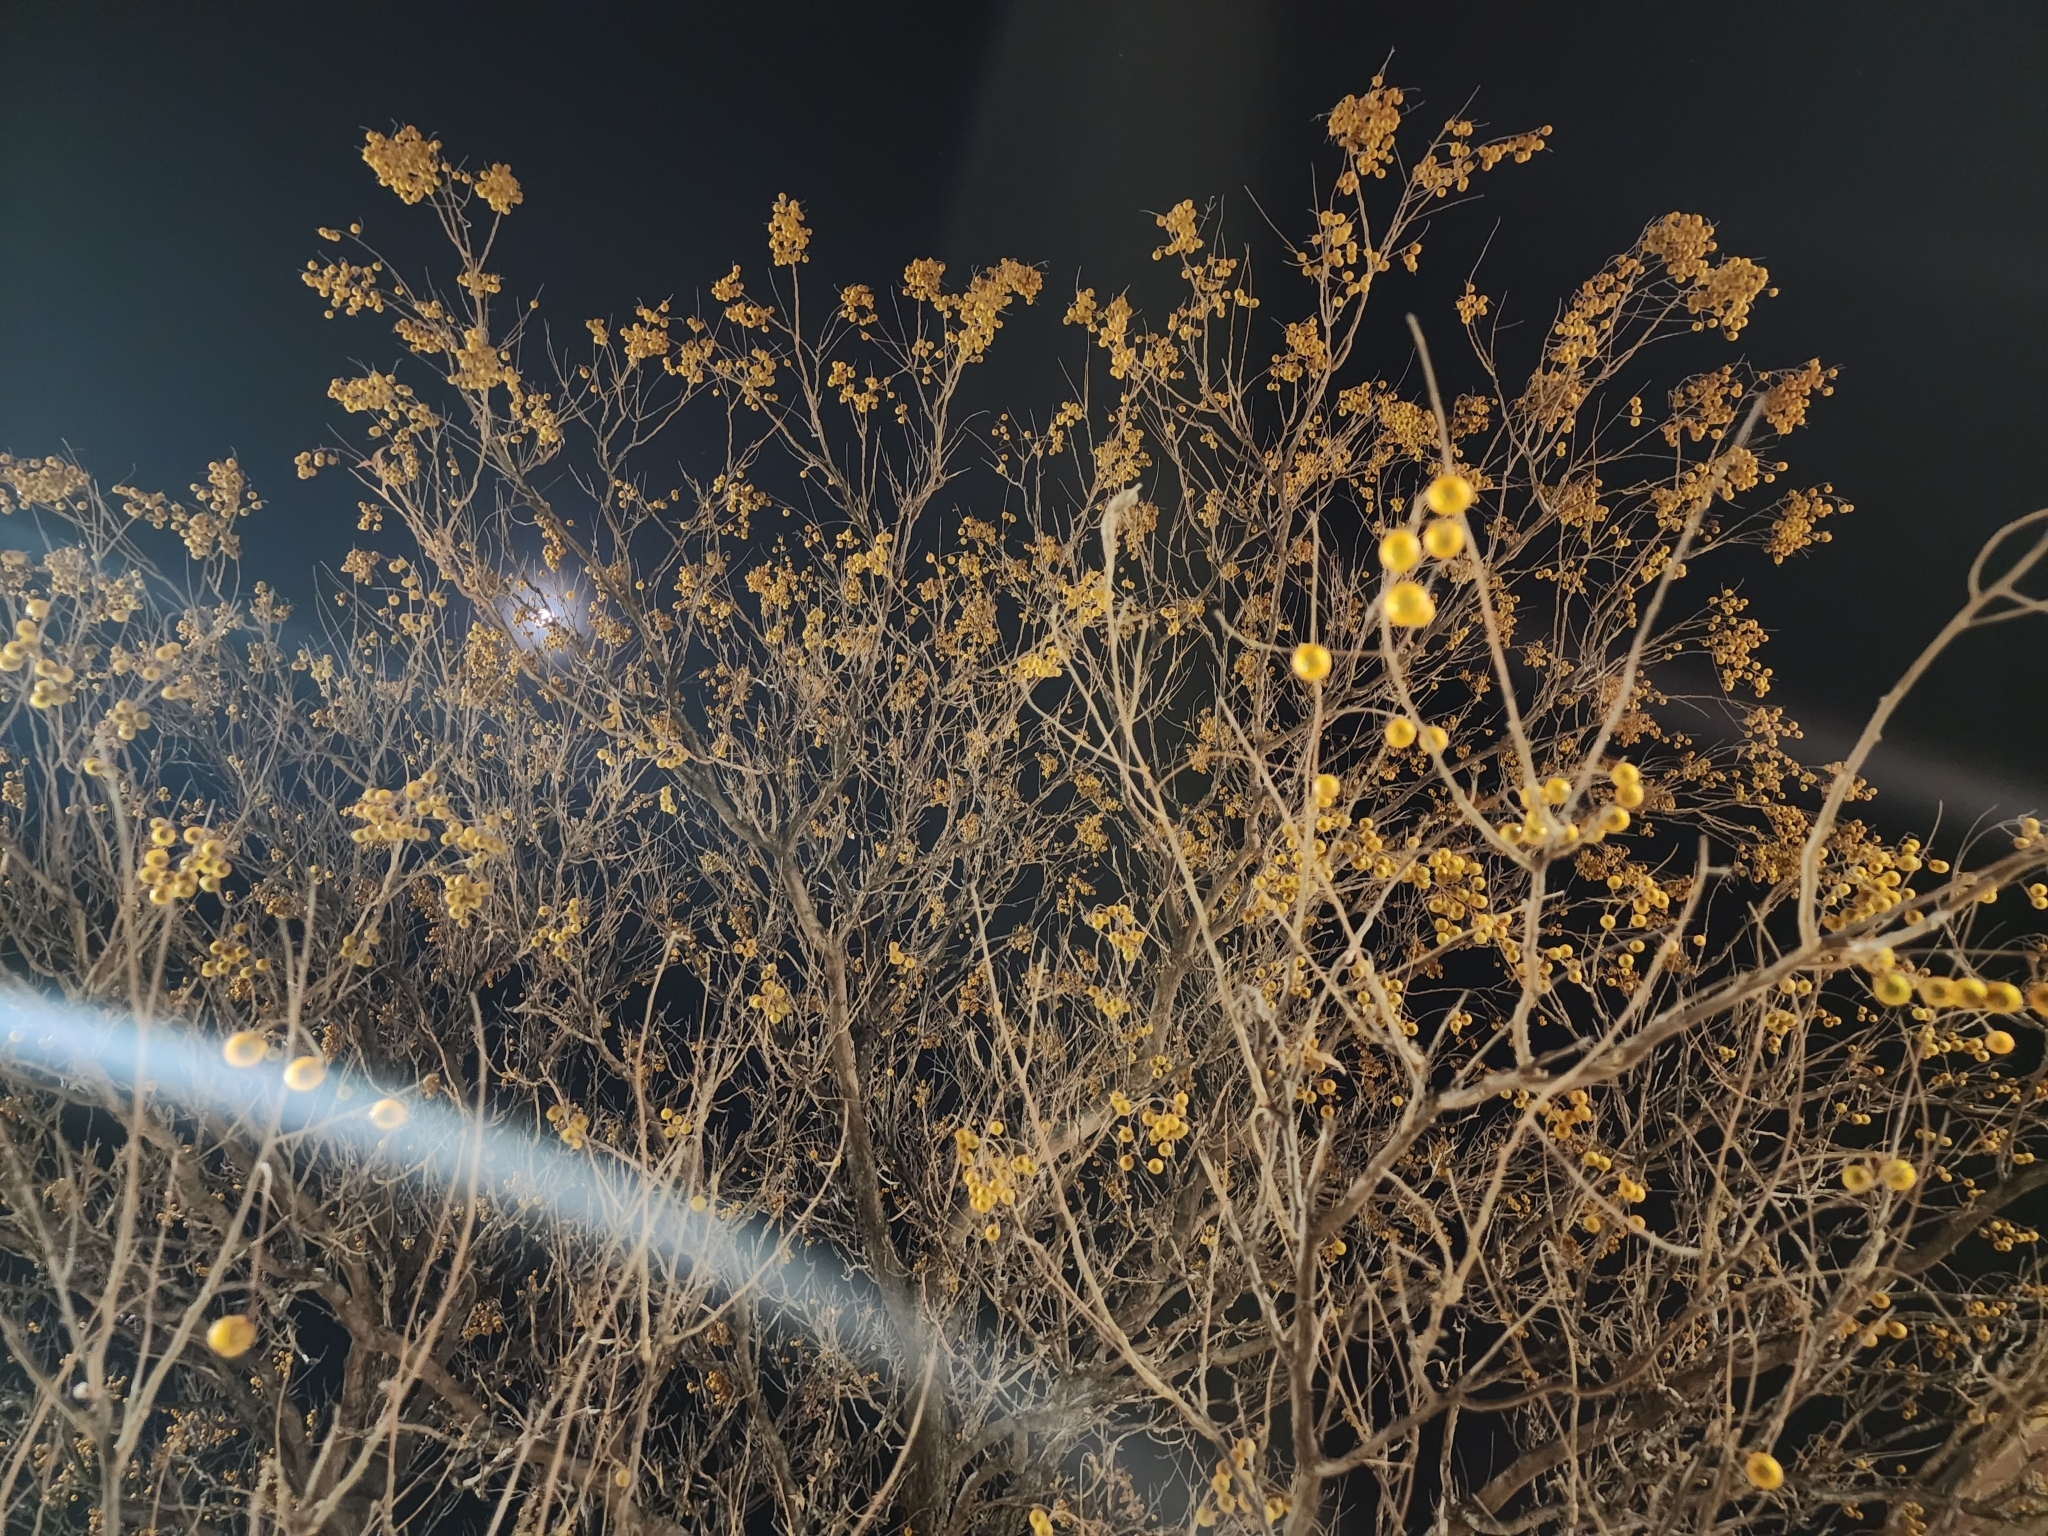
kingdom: Plantae
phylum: Tracheophyta
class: Magnoliopsida
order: Sapindales
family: Sapindaceae
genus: Sapindus
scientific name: Sapindus drummondii
